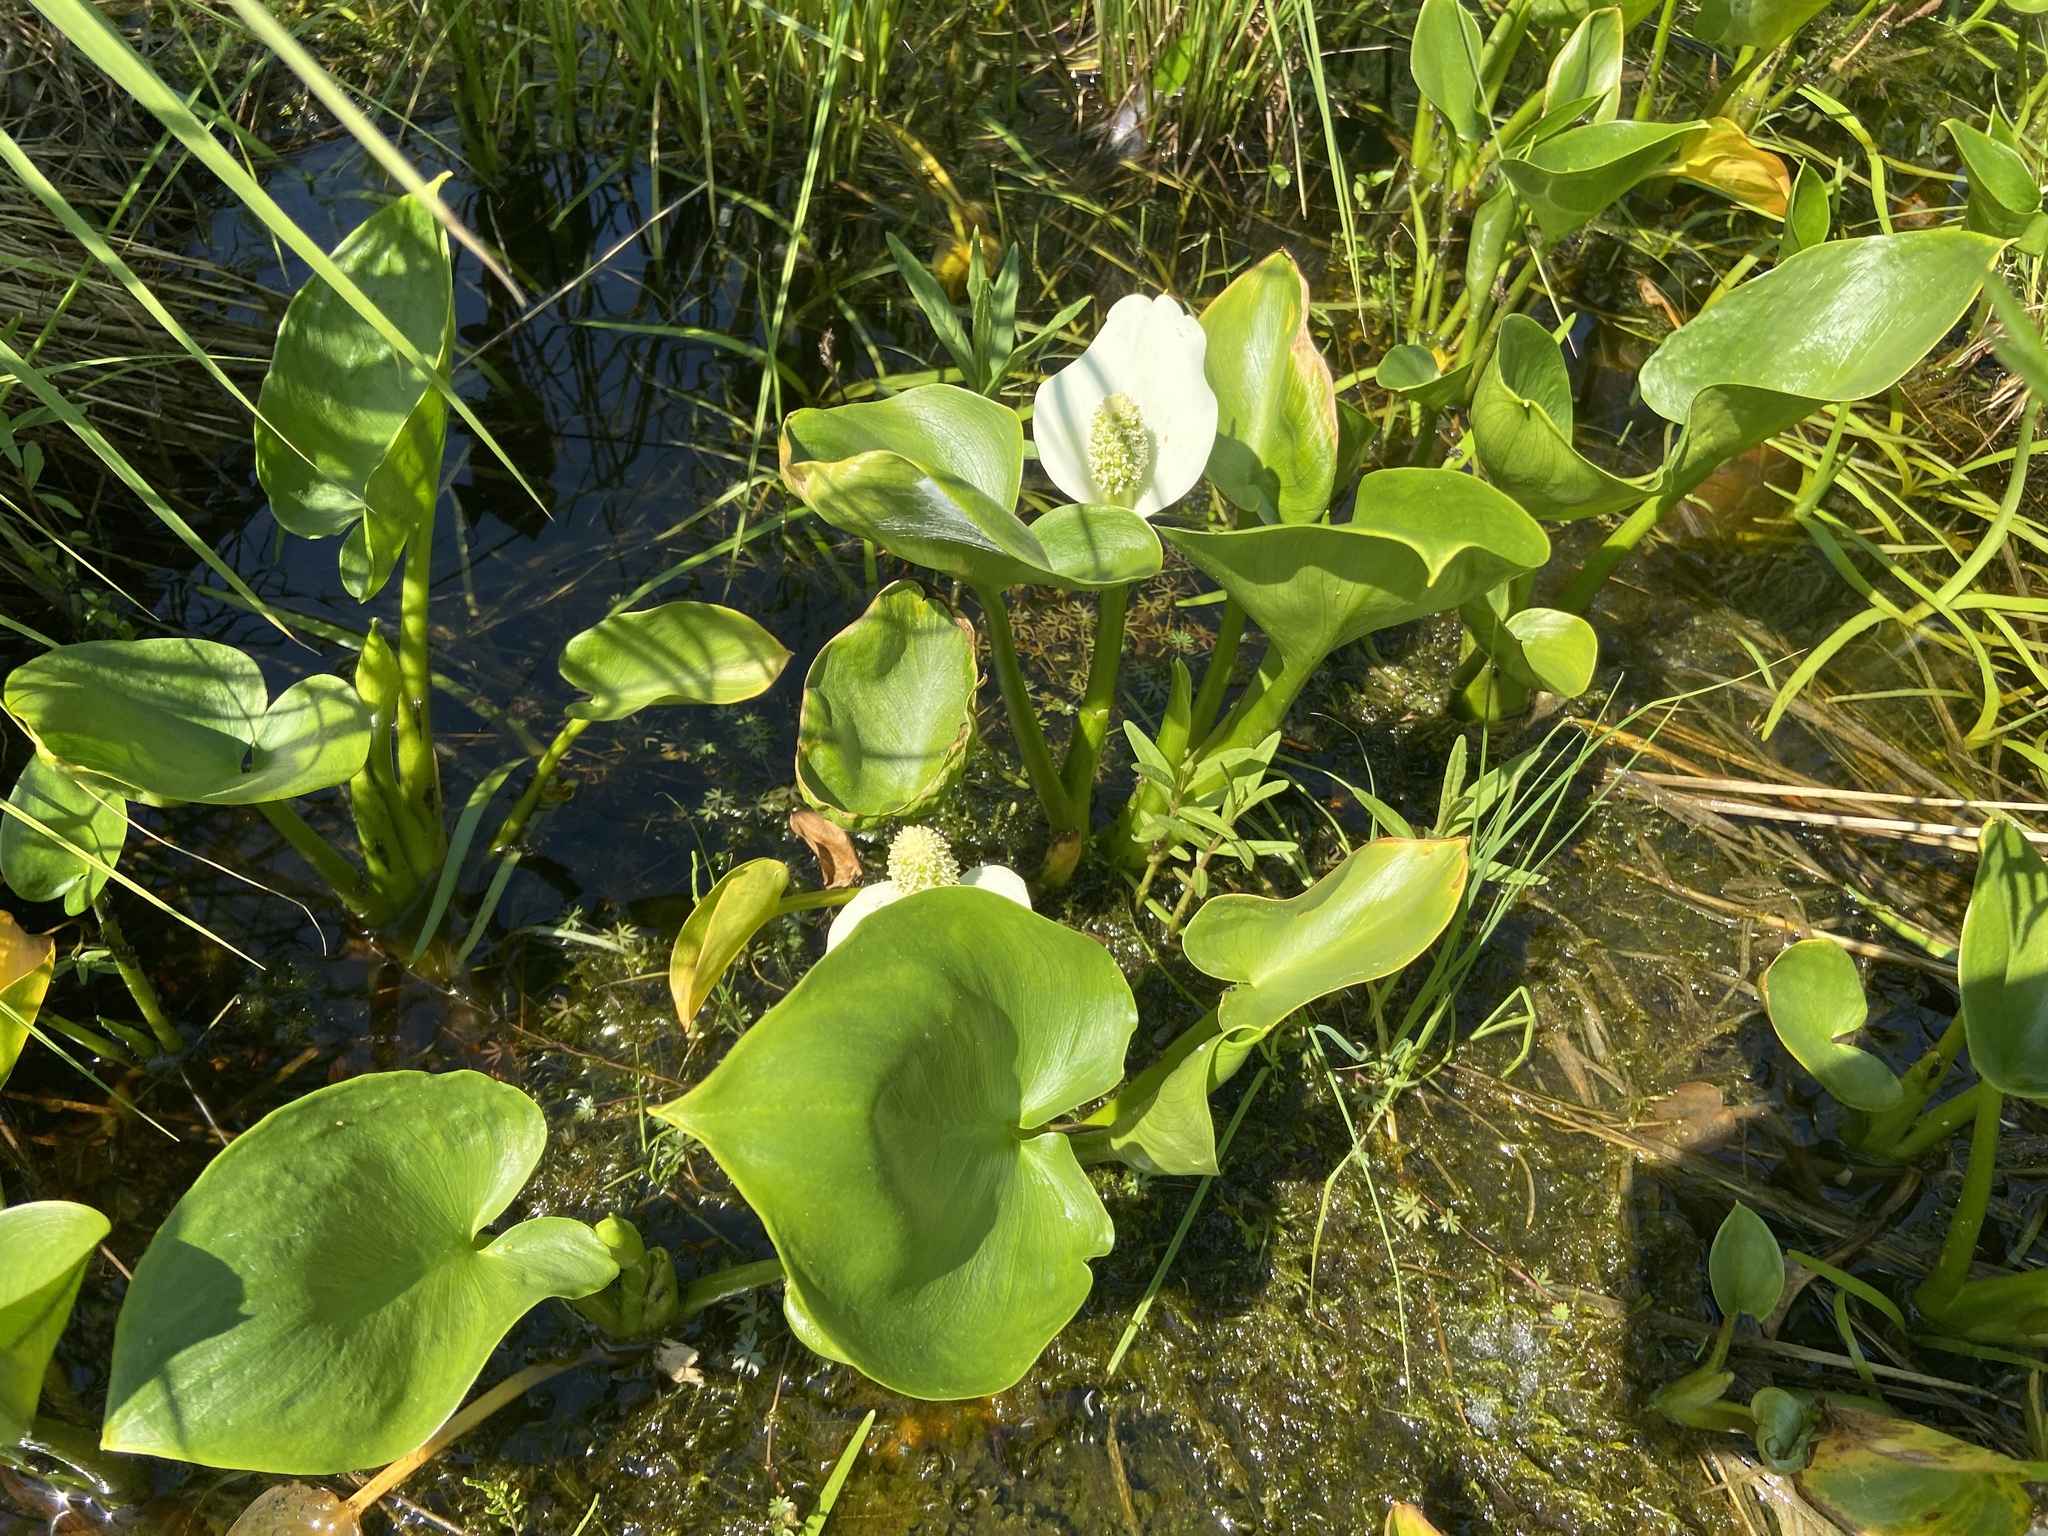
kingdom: Plantae
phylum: Tracheophyta
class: Liliopsida
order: Alismatales
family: Araceae
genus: Calla
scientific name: Calla palustris
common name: Bog arum
